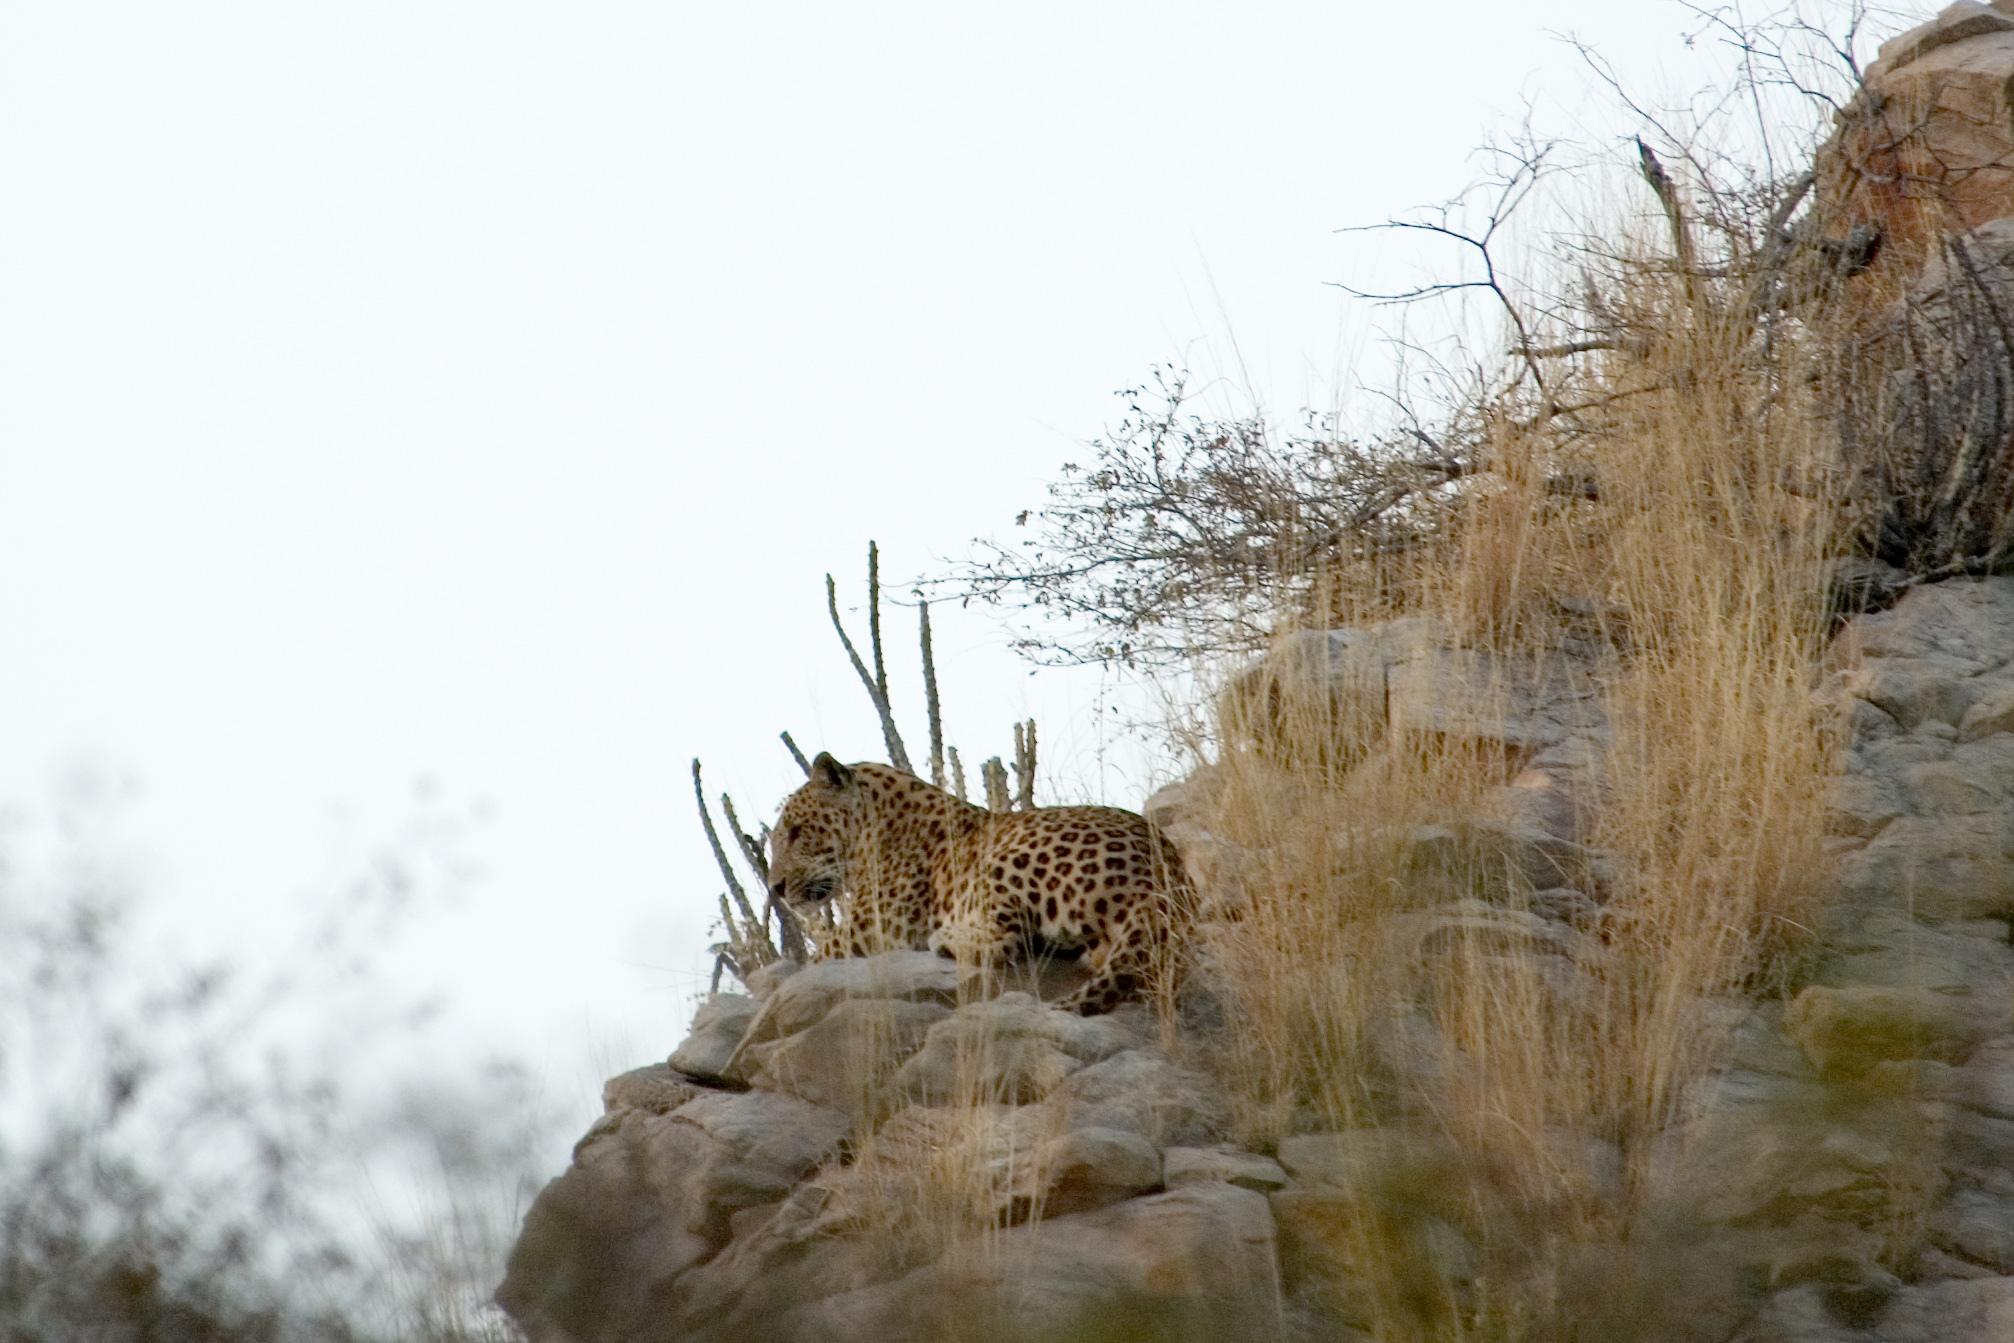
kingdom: Animalia
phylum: Chordata
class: Mammalia
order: Carnivora
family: Felidae
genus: Panthera
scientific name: Panthera pardus
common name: Leopard
